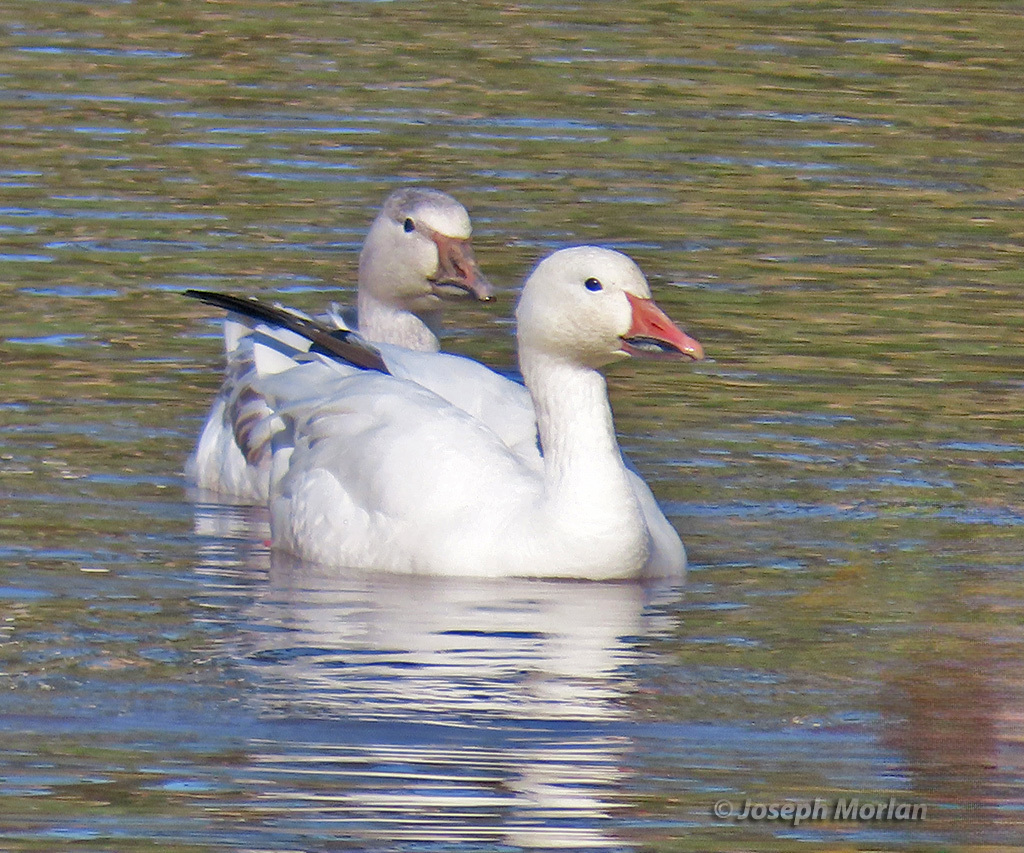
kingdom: Animalia
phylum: Chordata
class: Aves
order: Anseriformes
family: Anatidae
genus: Anser
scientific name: Anser caerulescens
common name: Snow goose
